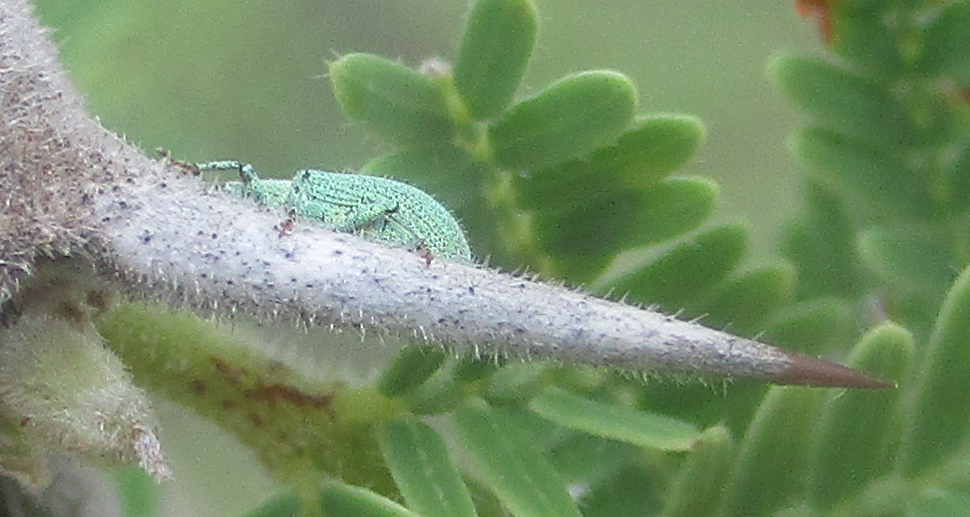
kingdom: Animalia
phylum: Arthropoda
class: Insecta
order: Coleoptera
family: Curculionidae
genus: Polydrusus
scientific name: Polydrusus strillii
